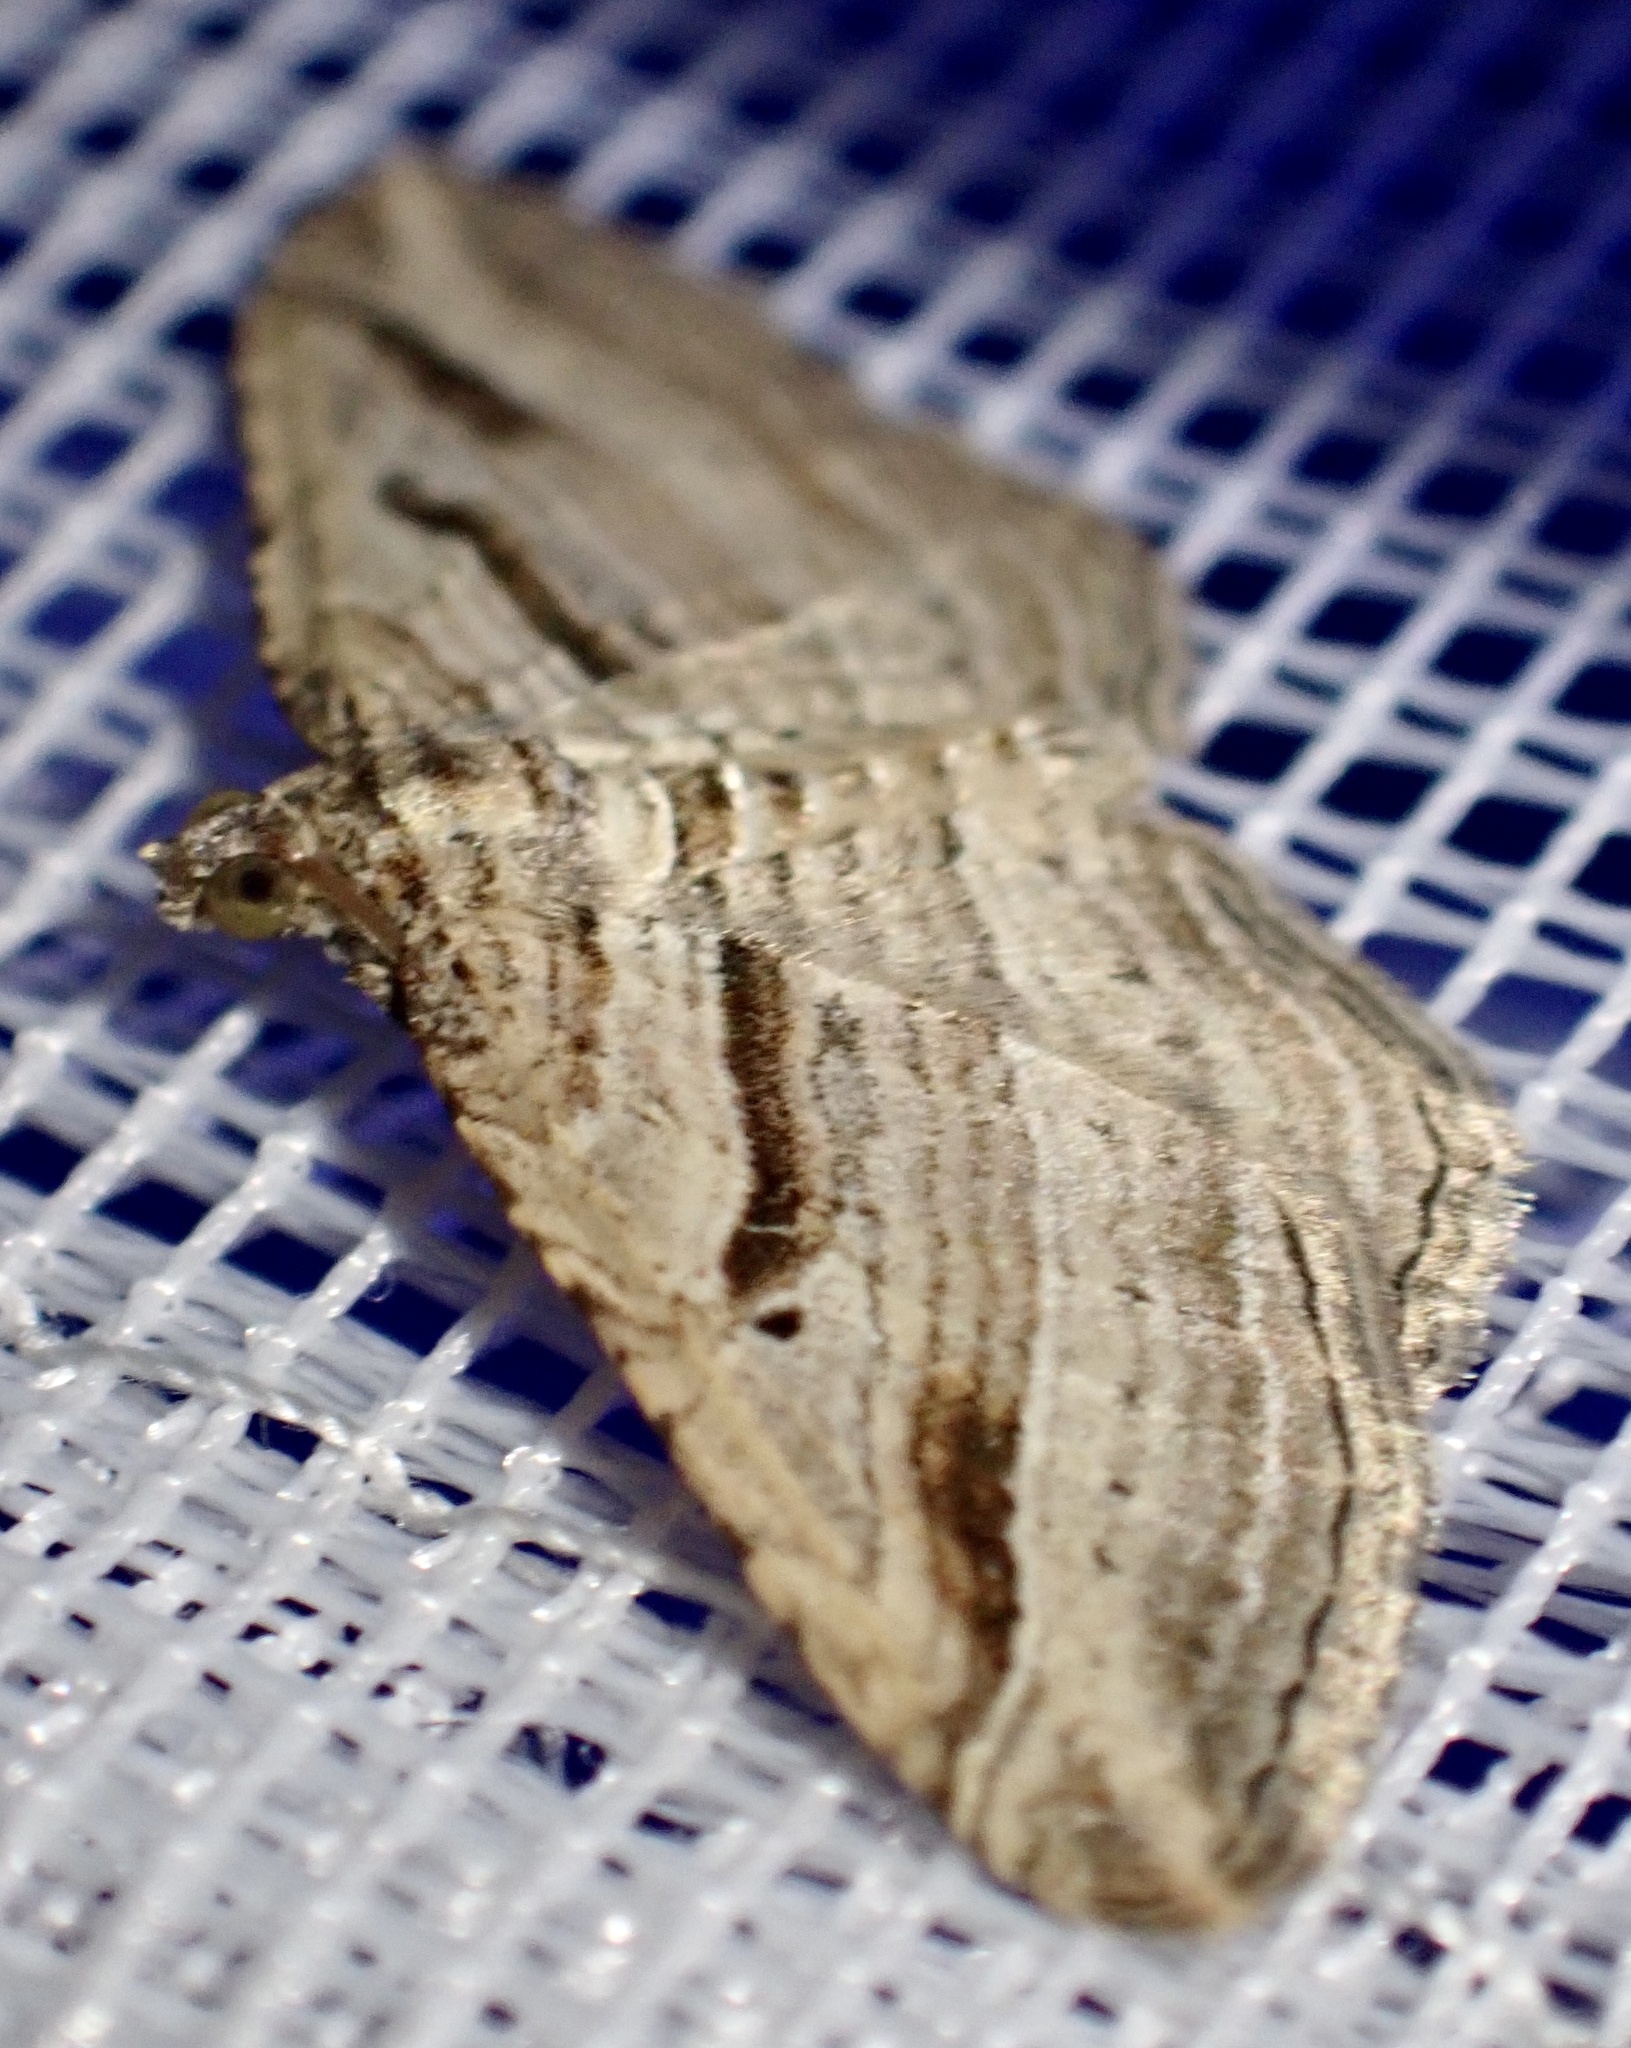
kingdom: Animalia
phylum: Arthropoda
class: Insecta
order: Lepidoptera
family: Geometridae
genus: Costaconvexa
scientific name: Costaconvexa polygrammata
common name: Many-lined
